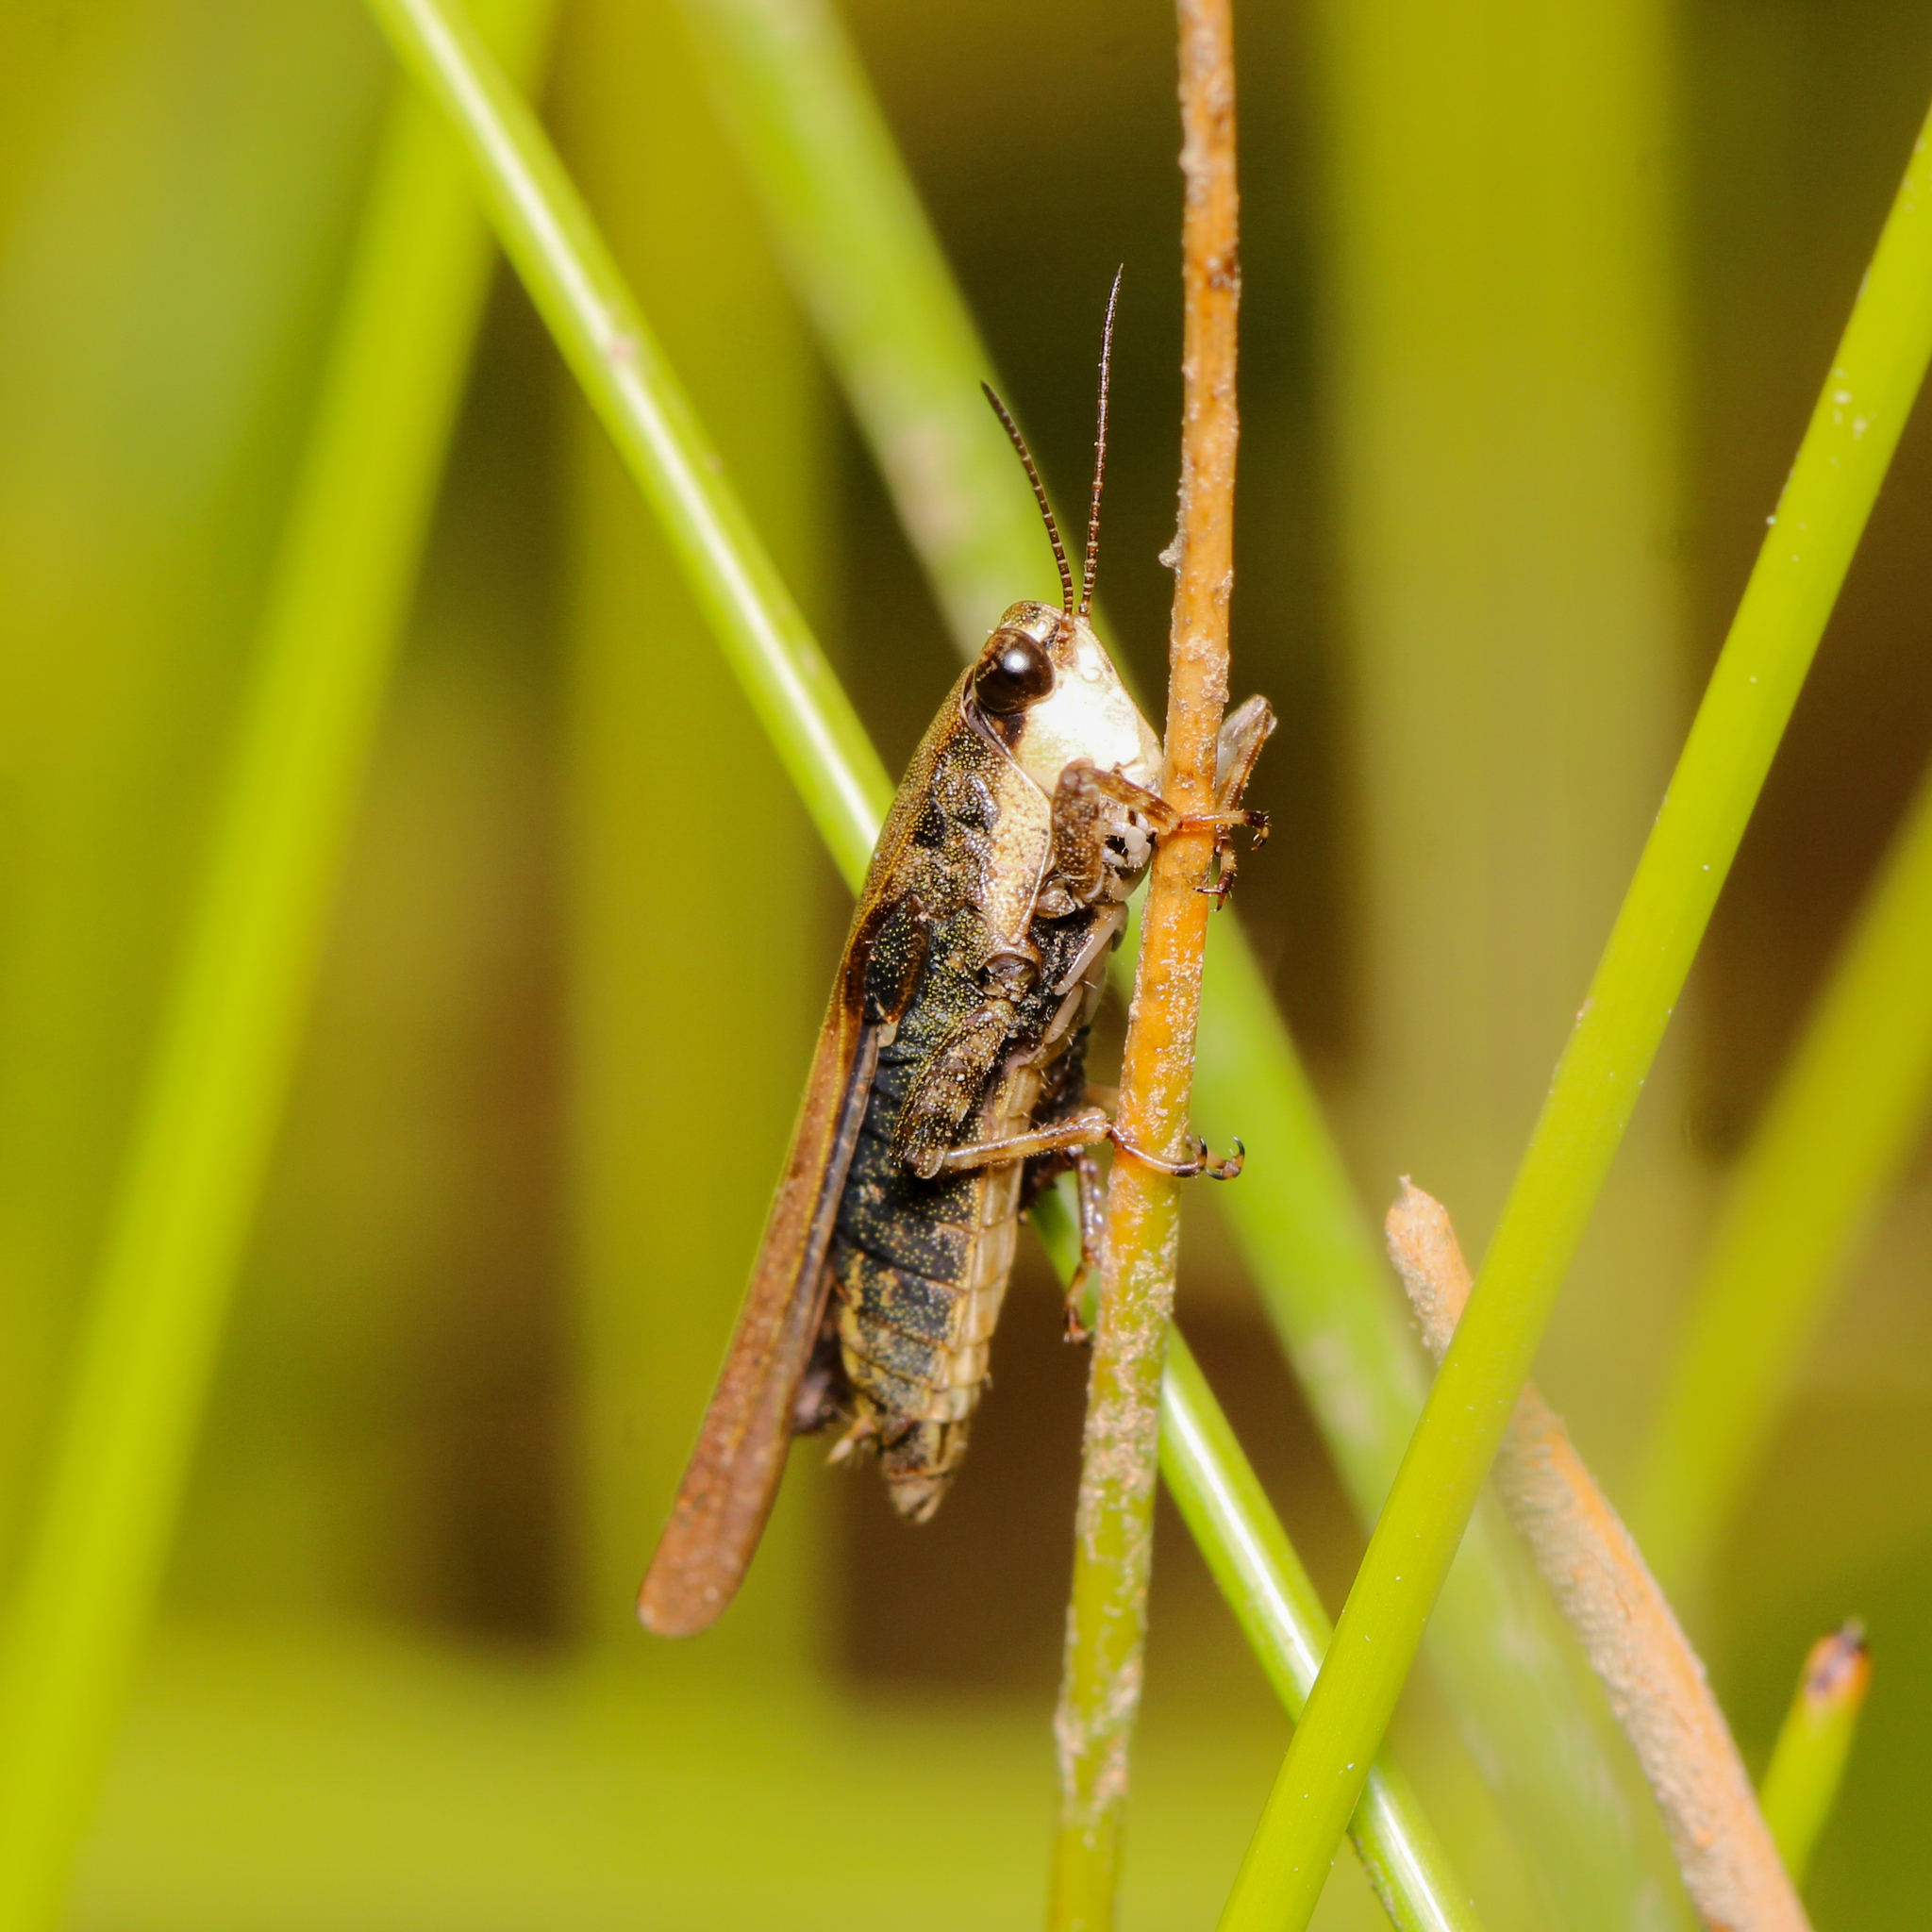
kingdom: Animalia
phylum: Arthropoda
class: Insecta
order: Orthoptera
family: Tetrigidae
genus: Tettigidea
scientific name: Tettigidea laterale
